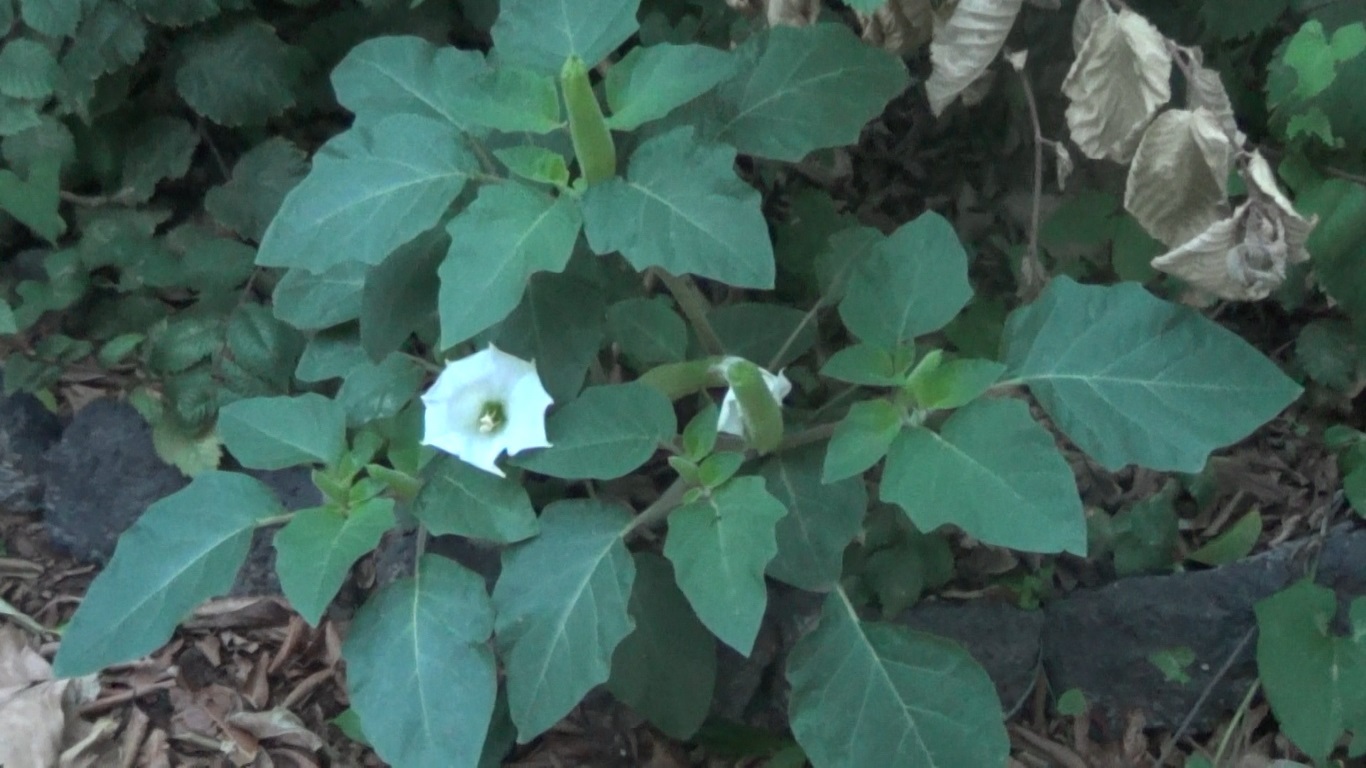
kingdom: Plantae
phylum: Tracheophyta
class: Magnoliopsida
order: Solanales
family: Solanaceae
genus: Datura
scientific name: Datura innoxia
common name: Downy thorn-apple
